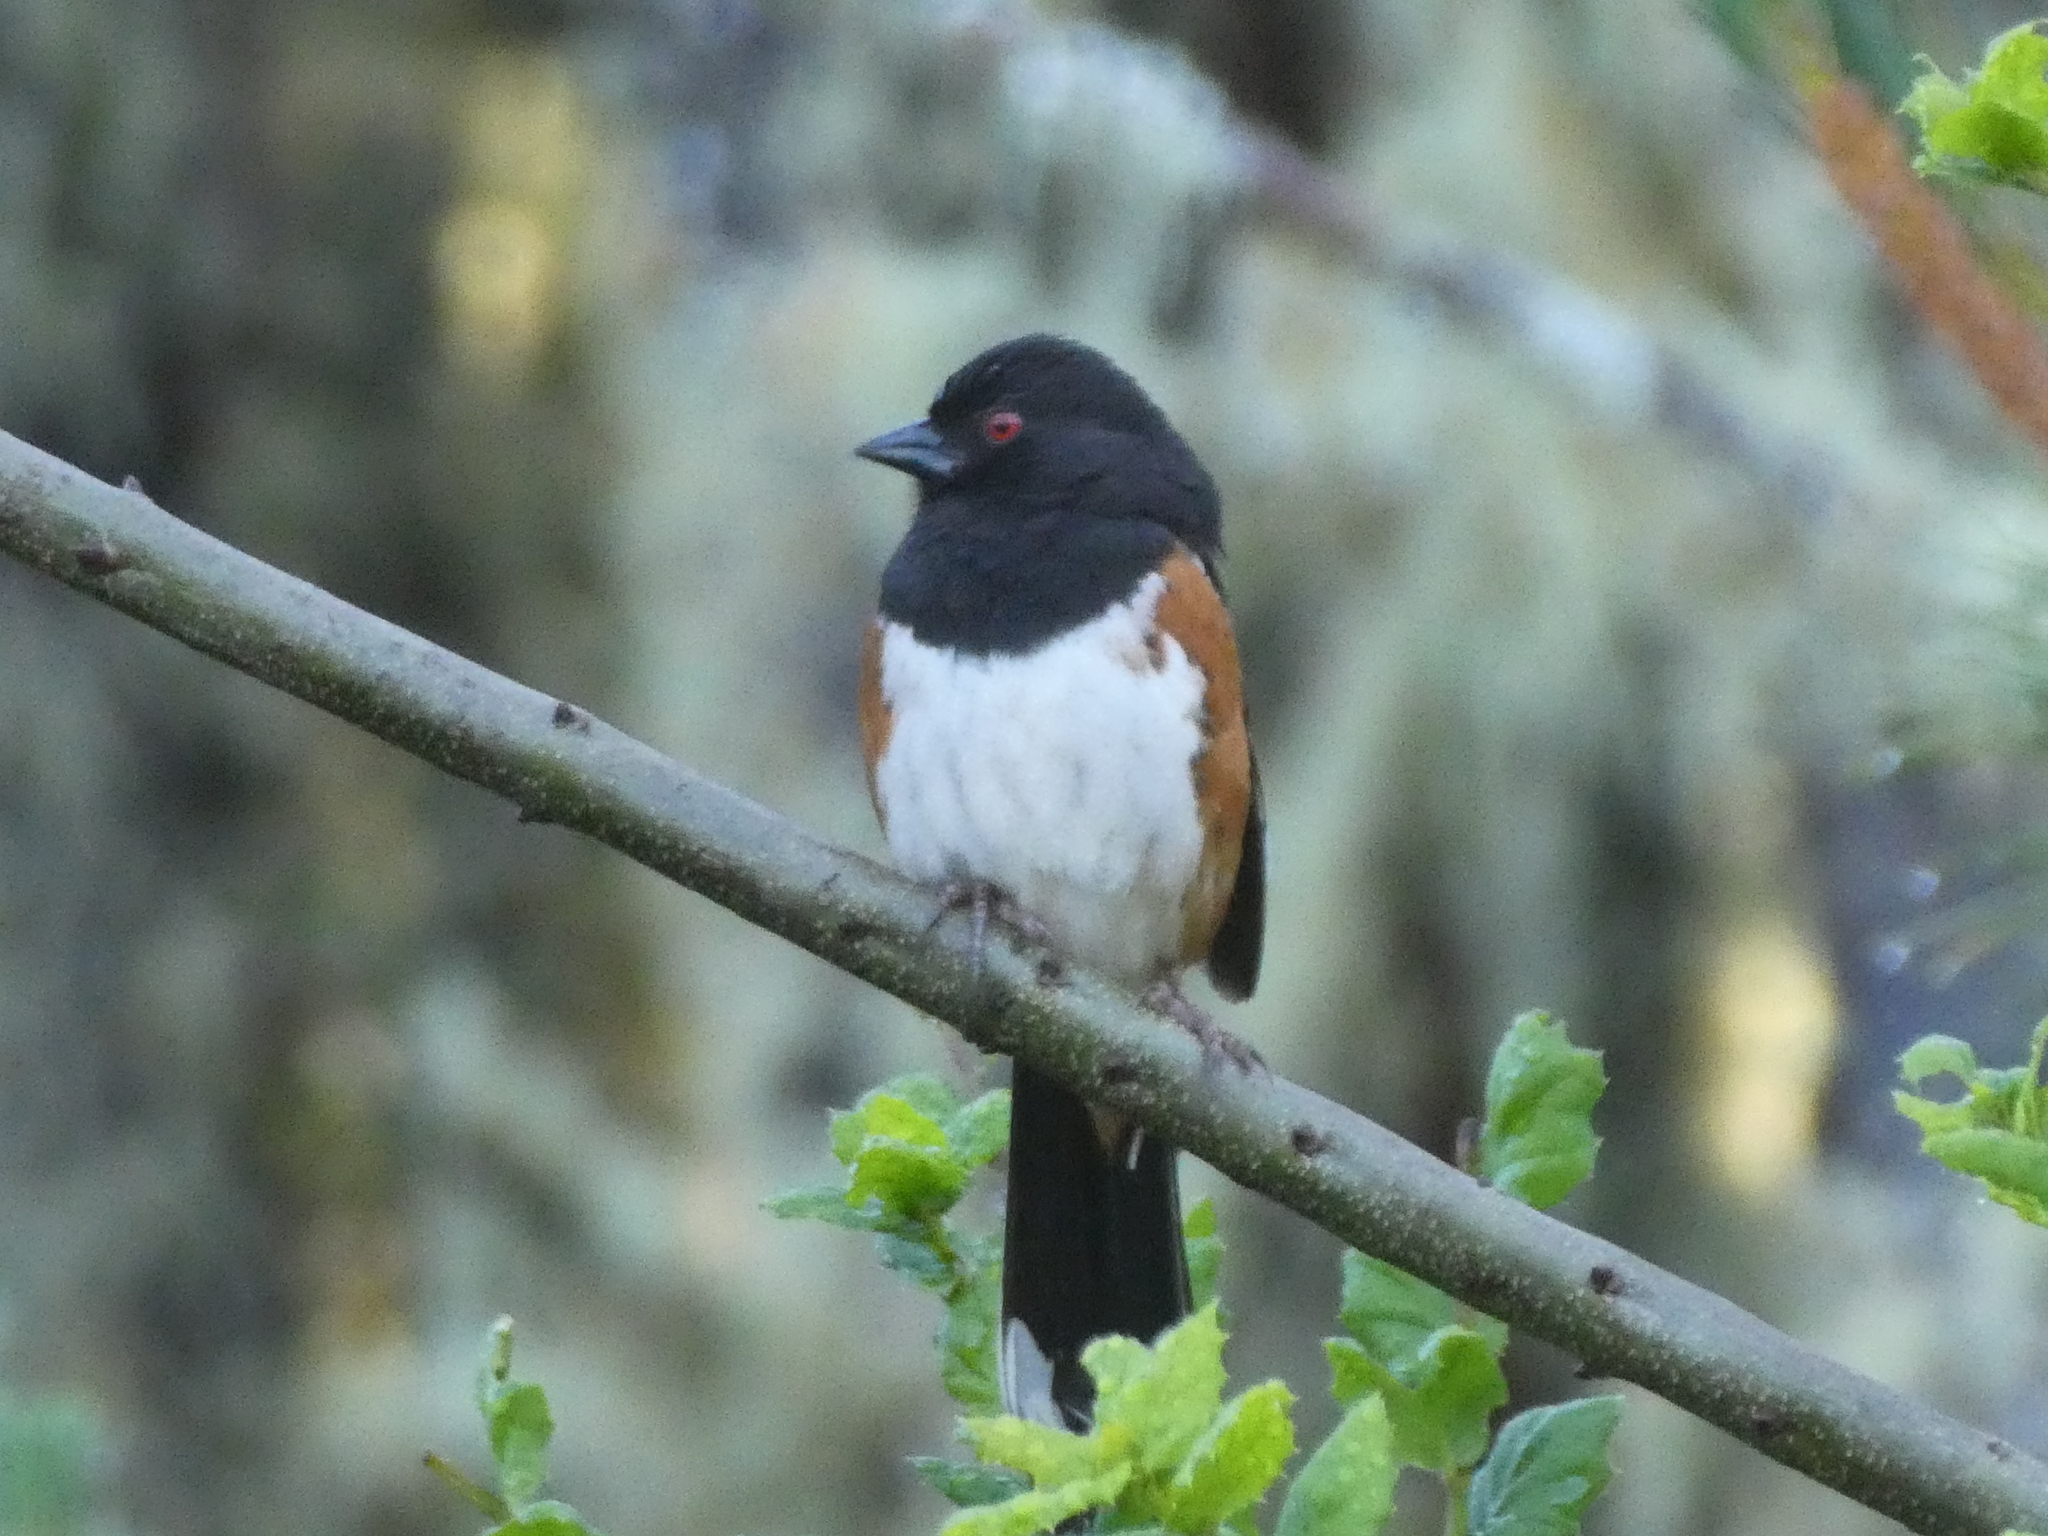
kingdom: Animalia
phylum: Chordata
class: Aves
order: Passeriformes
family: Passerellidae
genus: Pipilo
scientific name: Pipilo maculatus
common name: Spotted towhee
